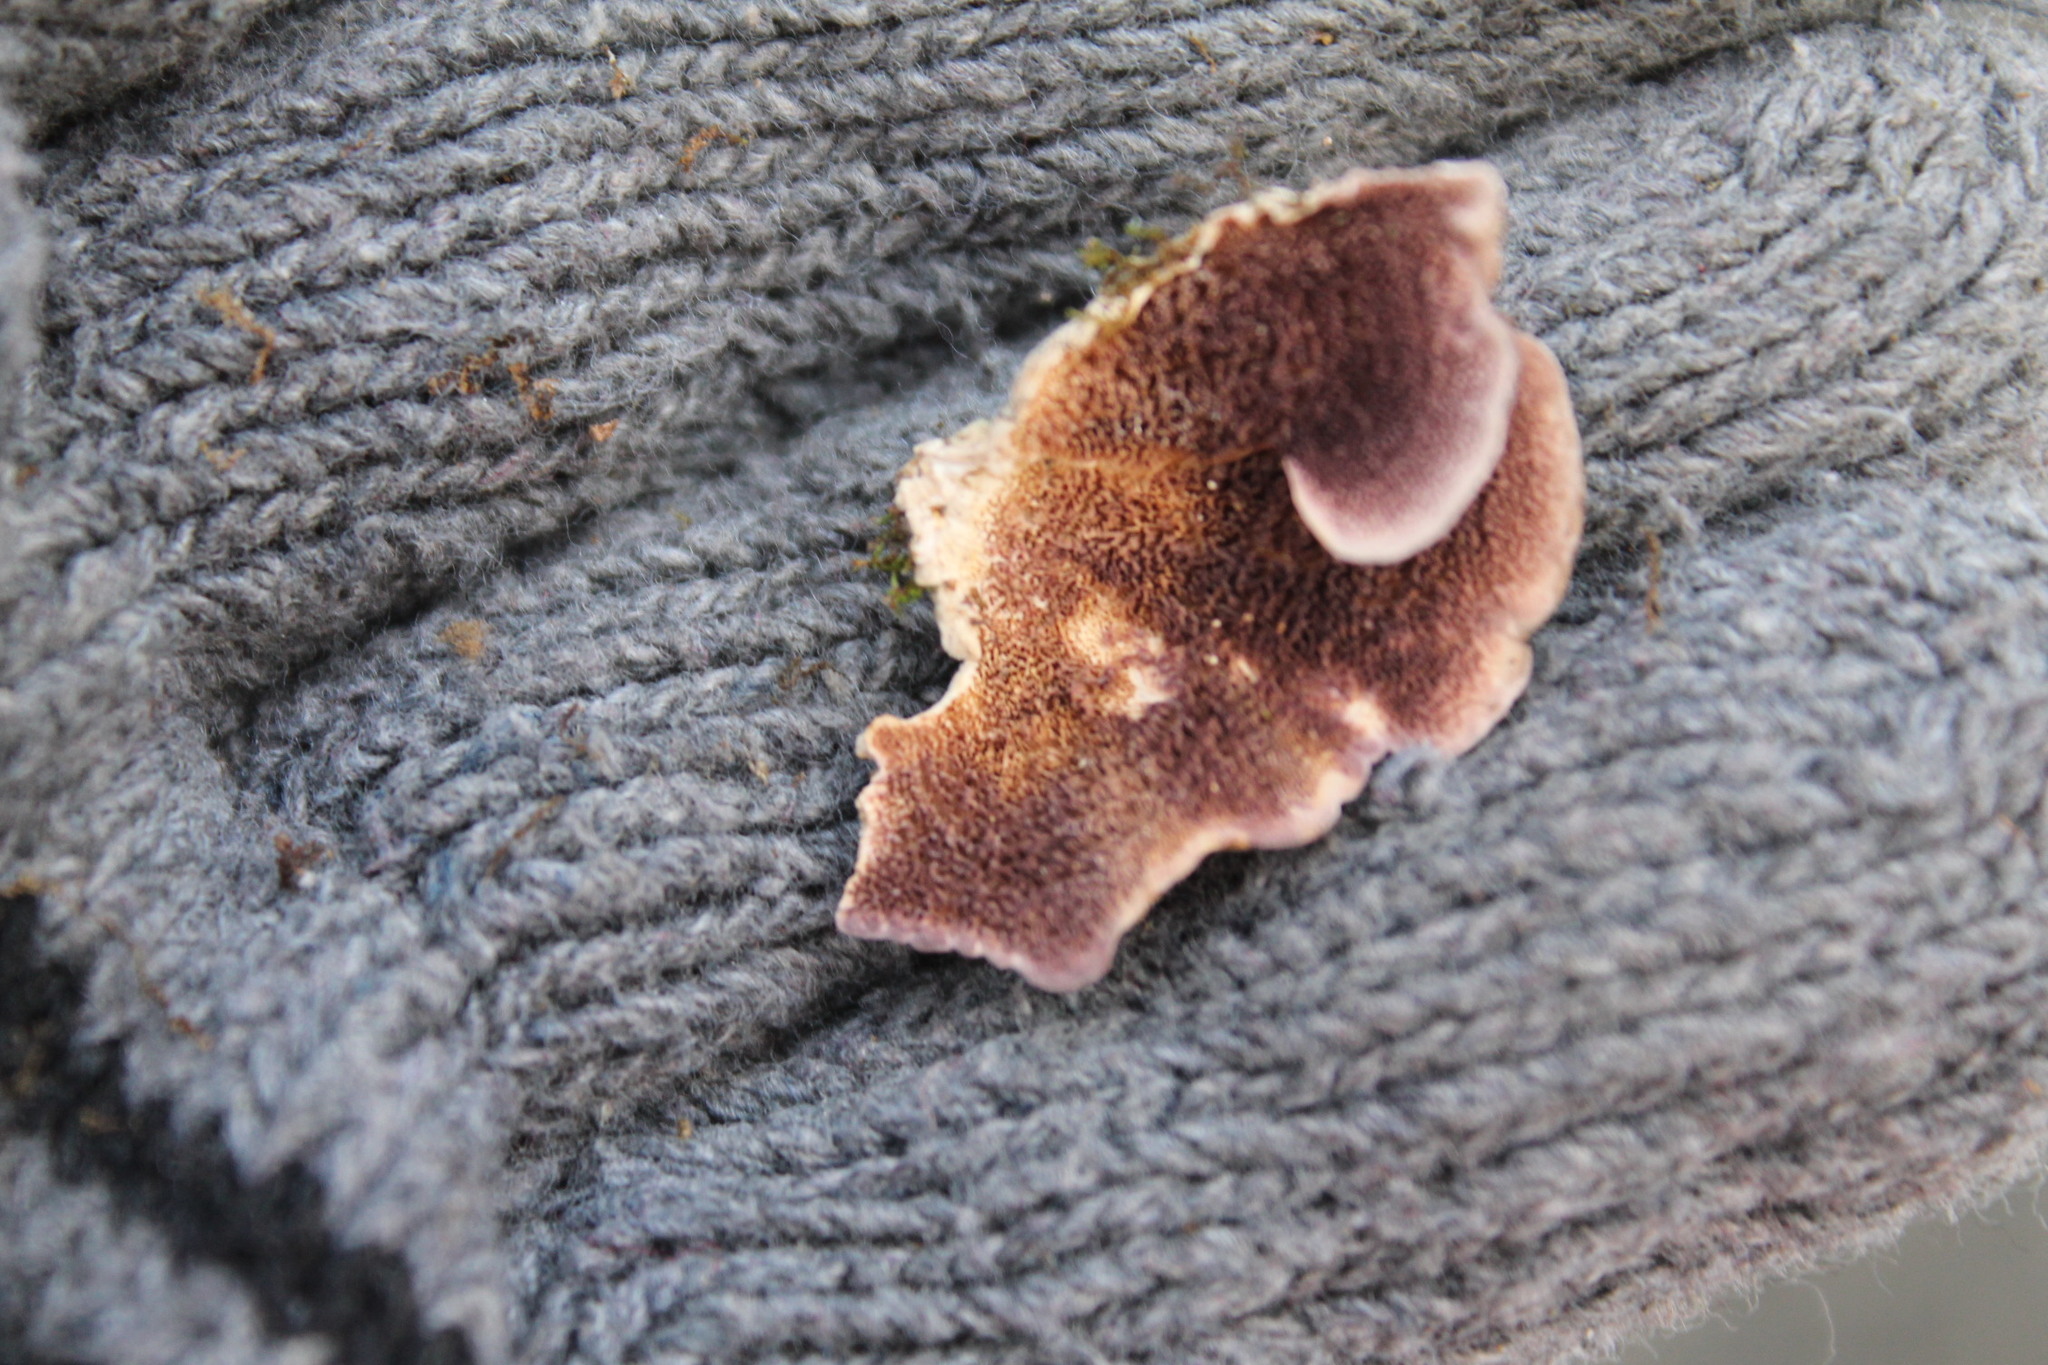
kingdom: Fungi
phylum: Basidiomycota
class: Agaricomycetes
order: Hymenochaetales
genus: Trichaptum
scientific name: Trichaptum biforme
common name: Violet-toothed polypore
